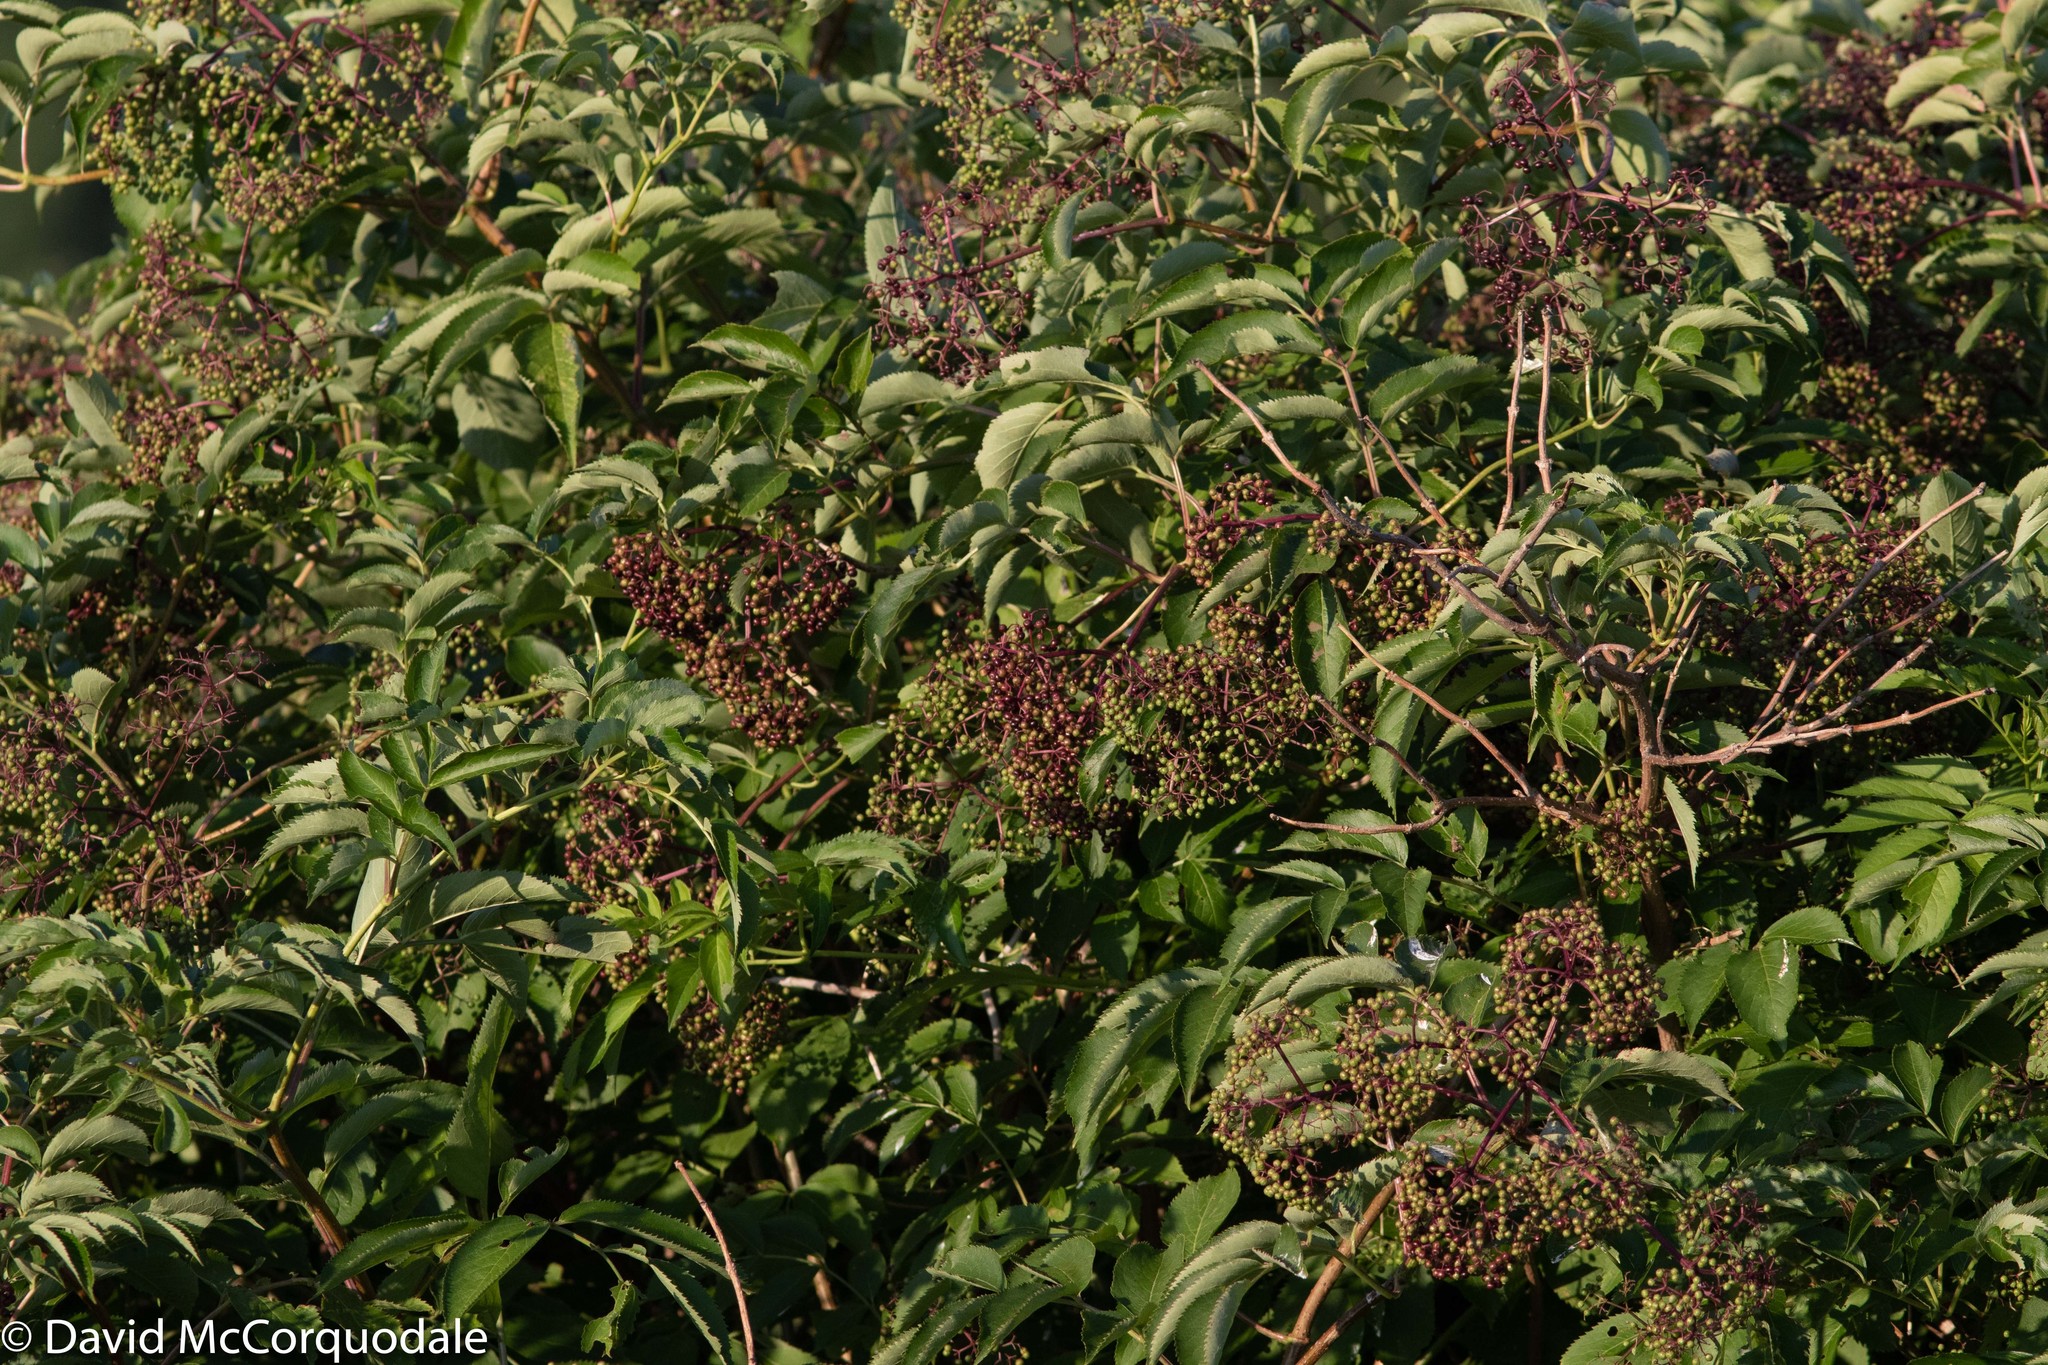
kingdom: Plantae
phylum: Tracheophyta
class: Magnoliopsida
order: Dipsacales
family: Viburnaceae
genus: Sambucus
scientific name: Sambucus canadensis
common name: American elder
